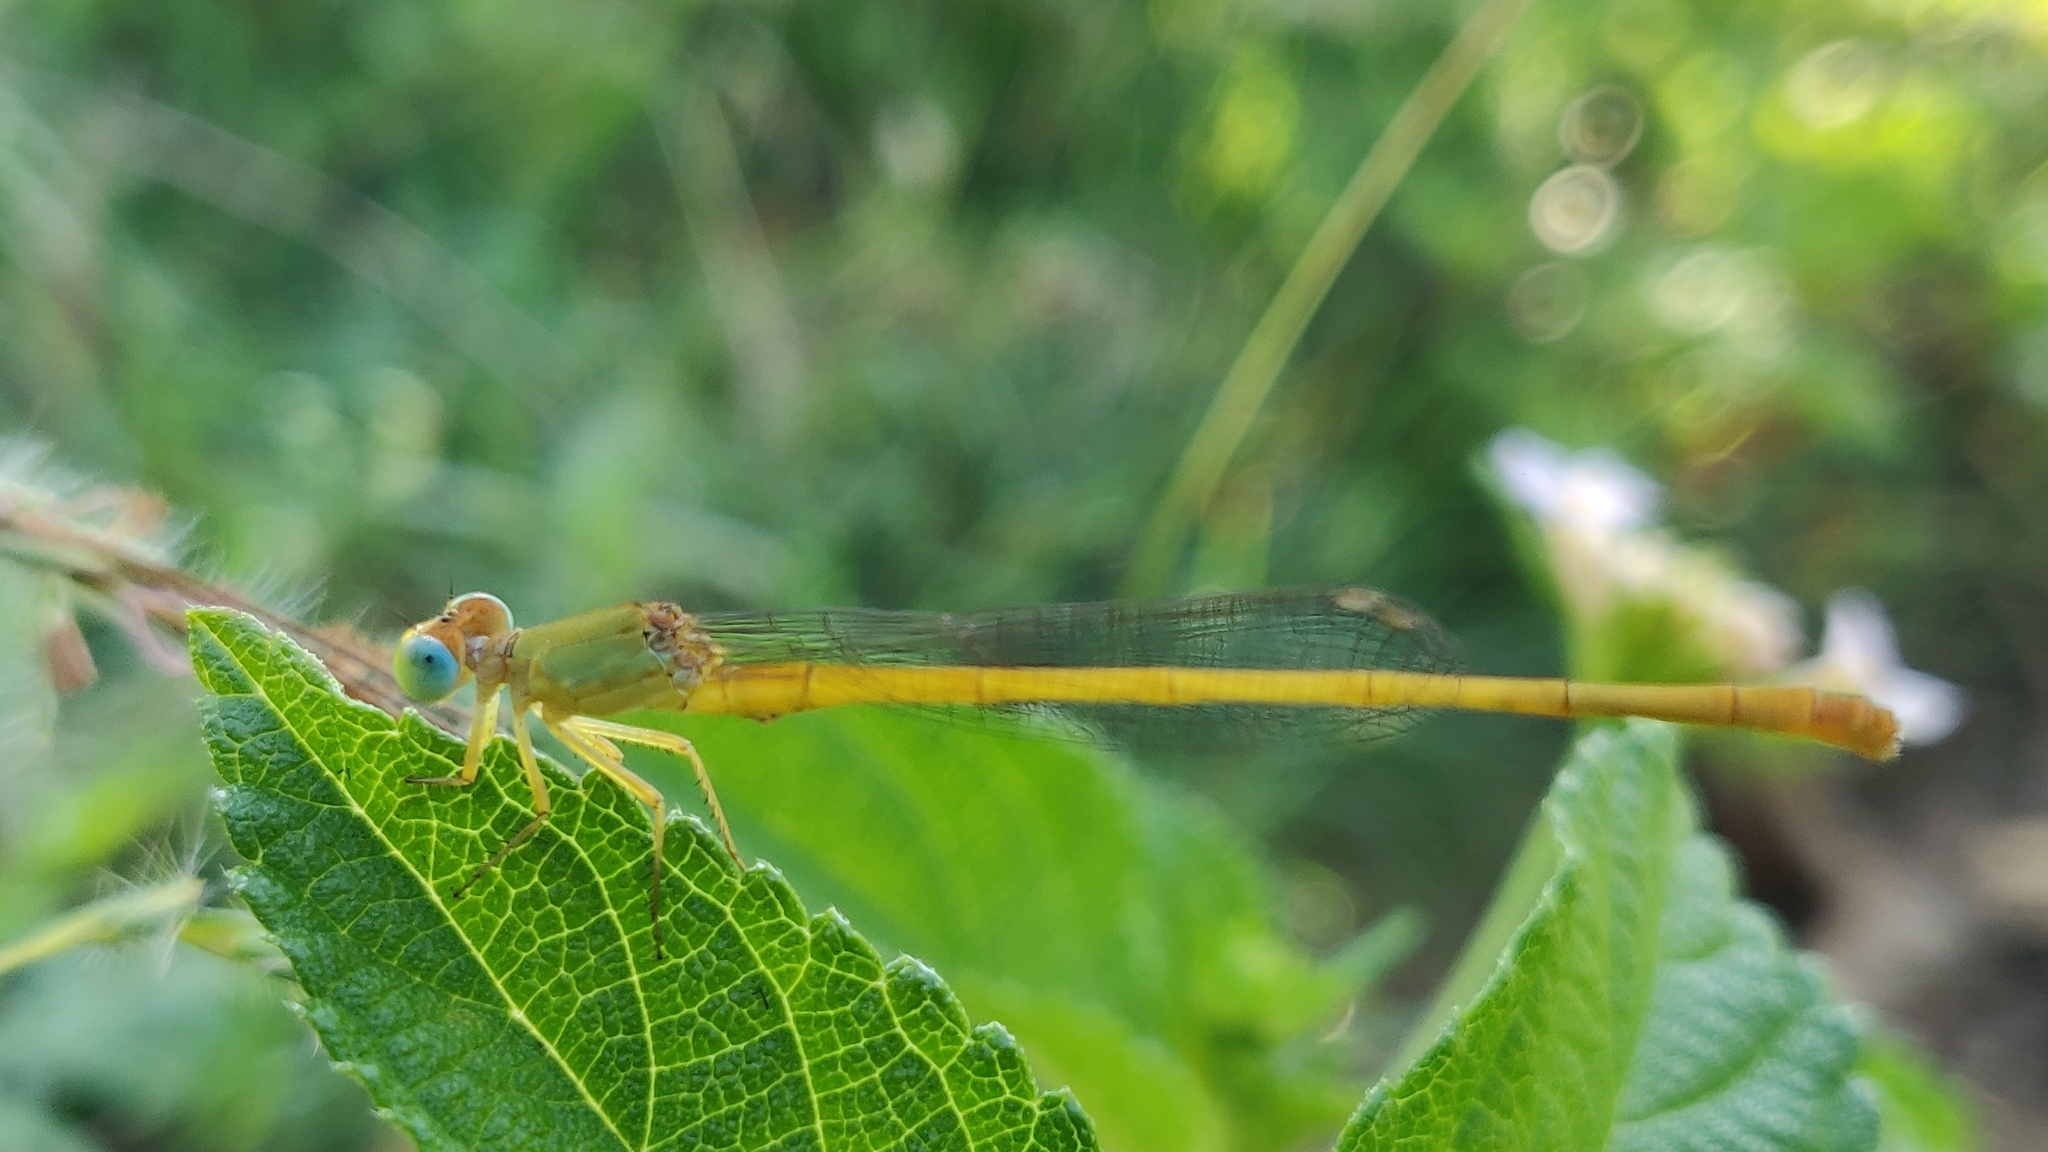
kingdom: Animalia
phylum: Arthropoda
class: Insecta
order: Odonata
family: Coenagrionidae
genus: Ceriagrion
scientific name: Ceriagrion coromandelianum
